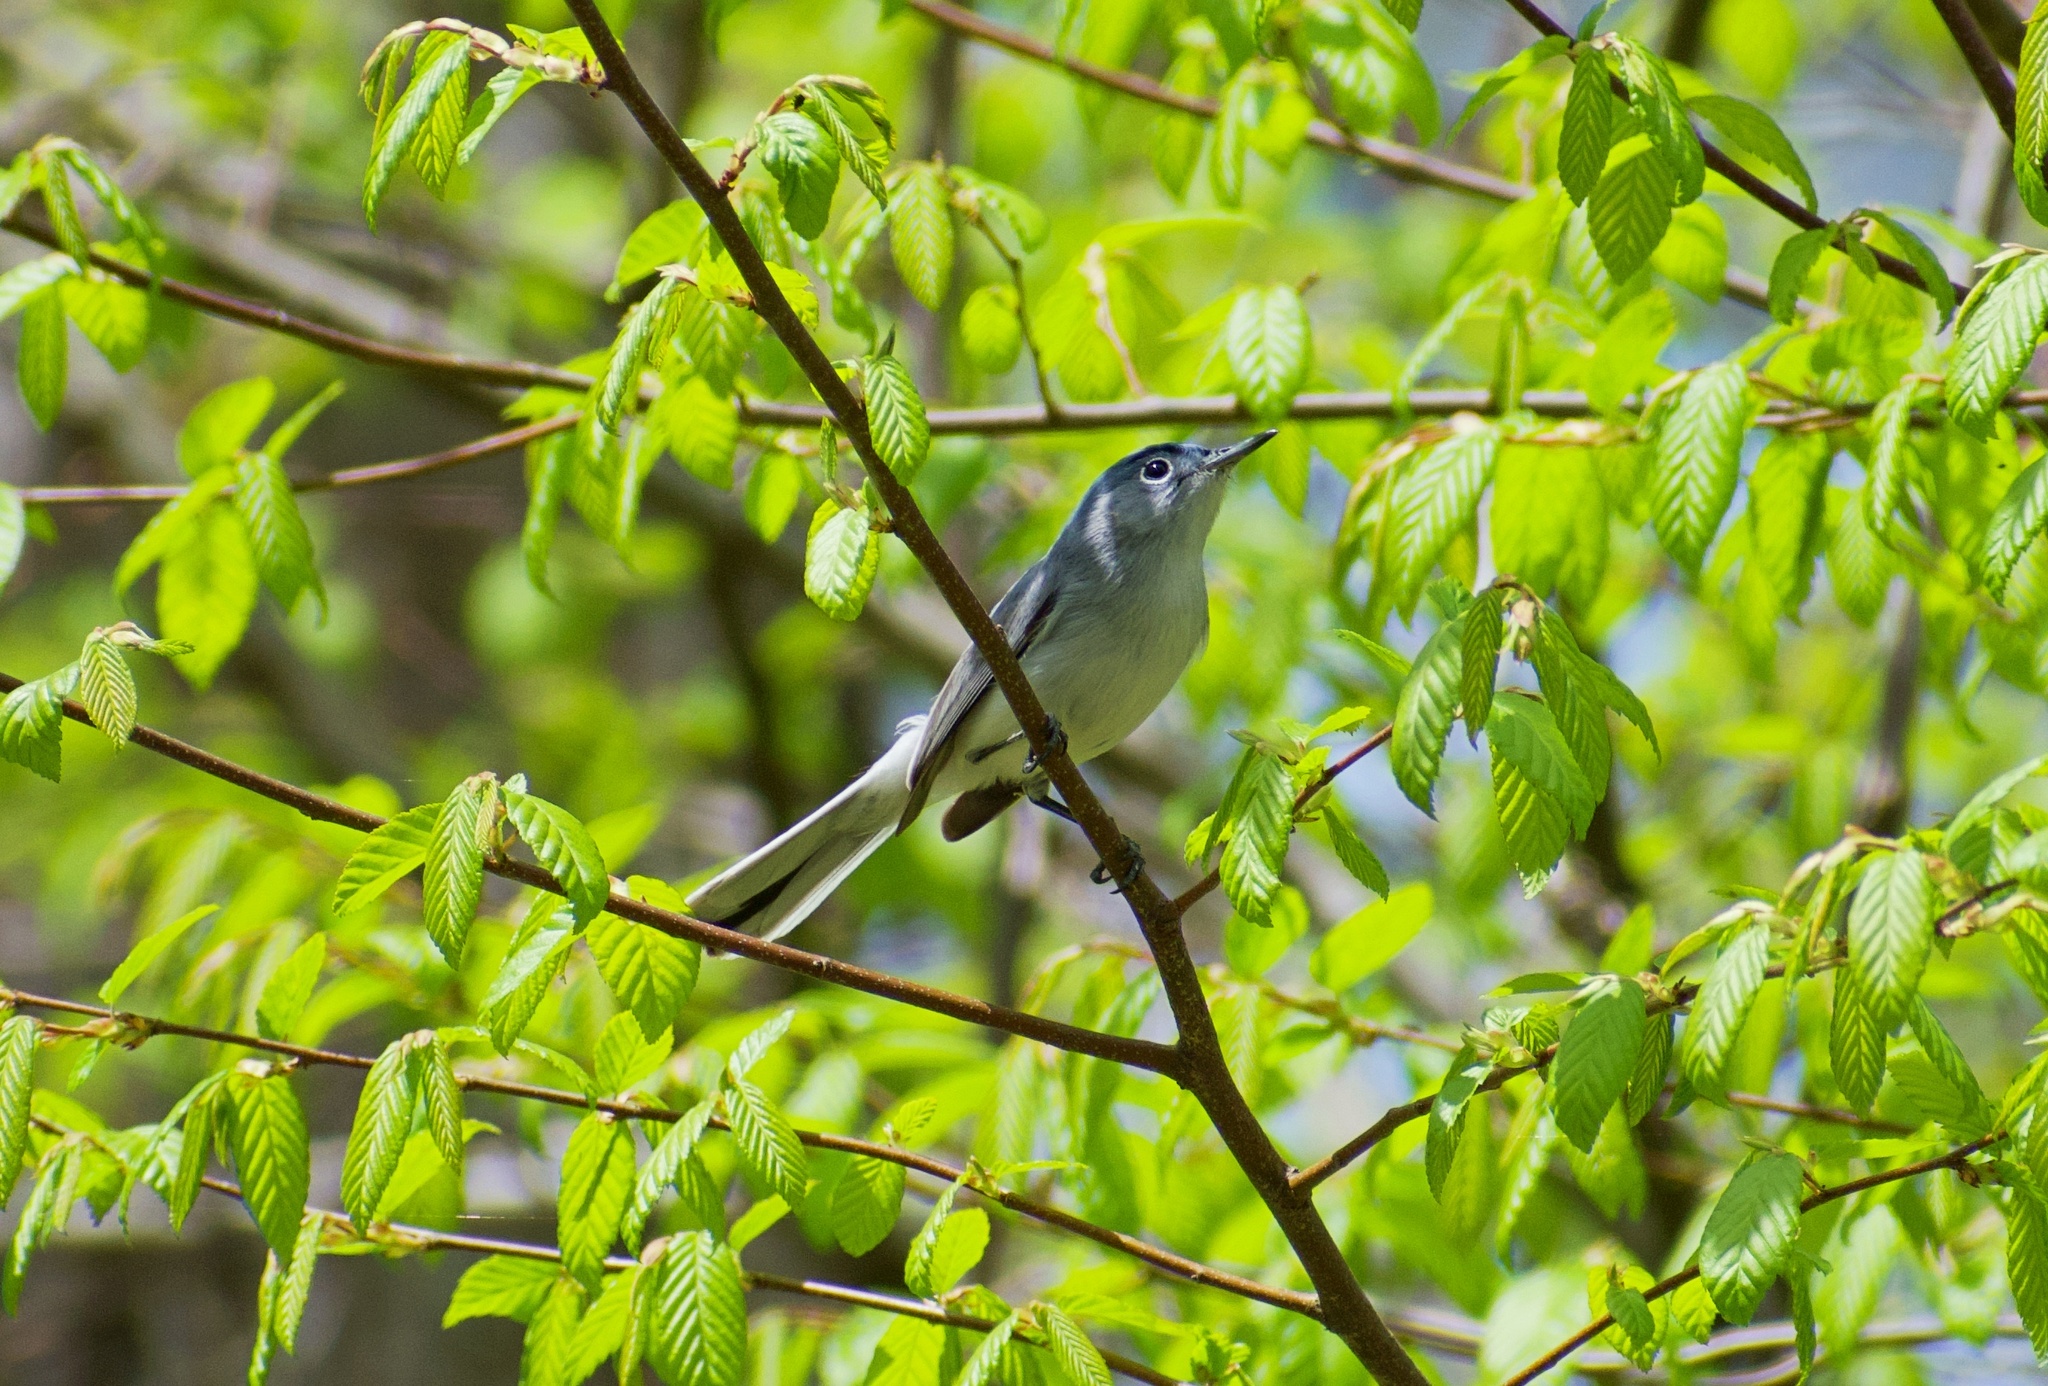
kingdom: Animalia
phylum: Chordata
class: Aves
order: Passeriformes
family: Polioptilidae
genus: Polioptila
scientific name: Polioptila caerulea
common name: Blue-gray gnatcatcher
